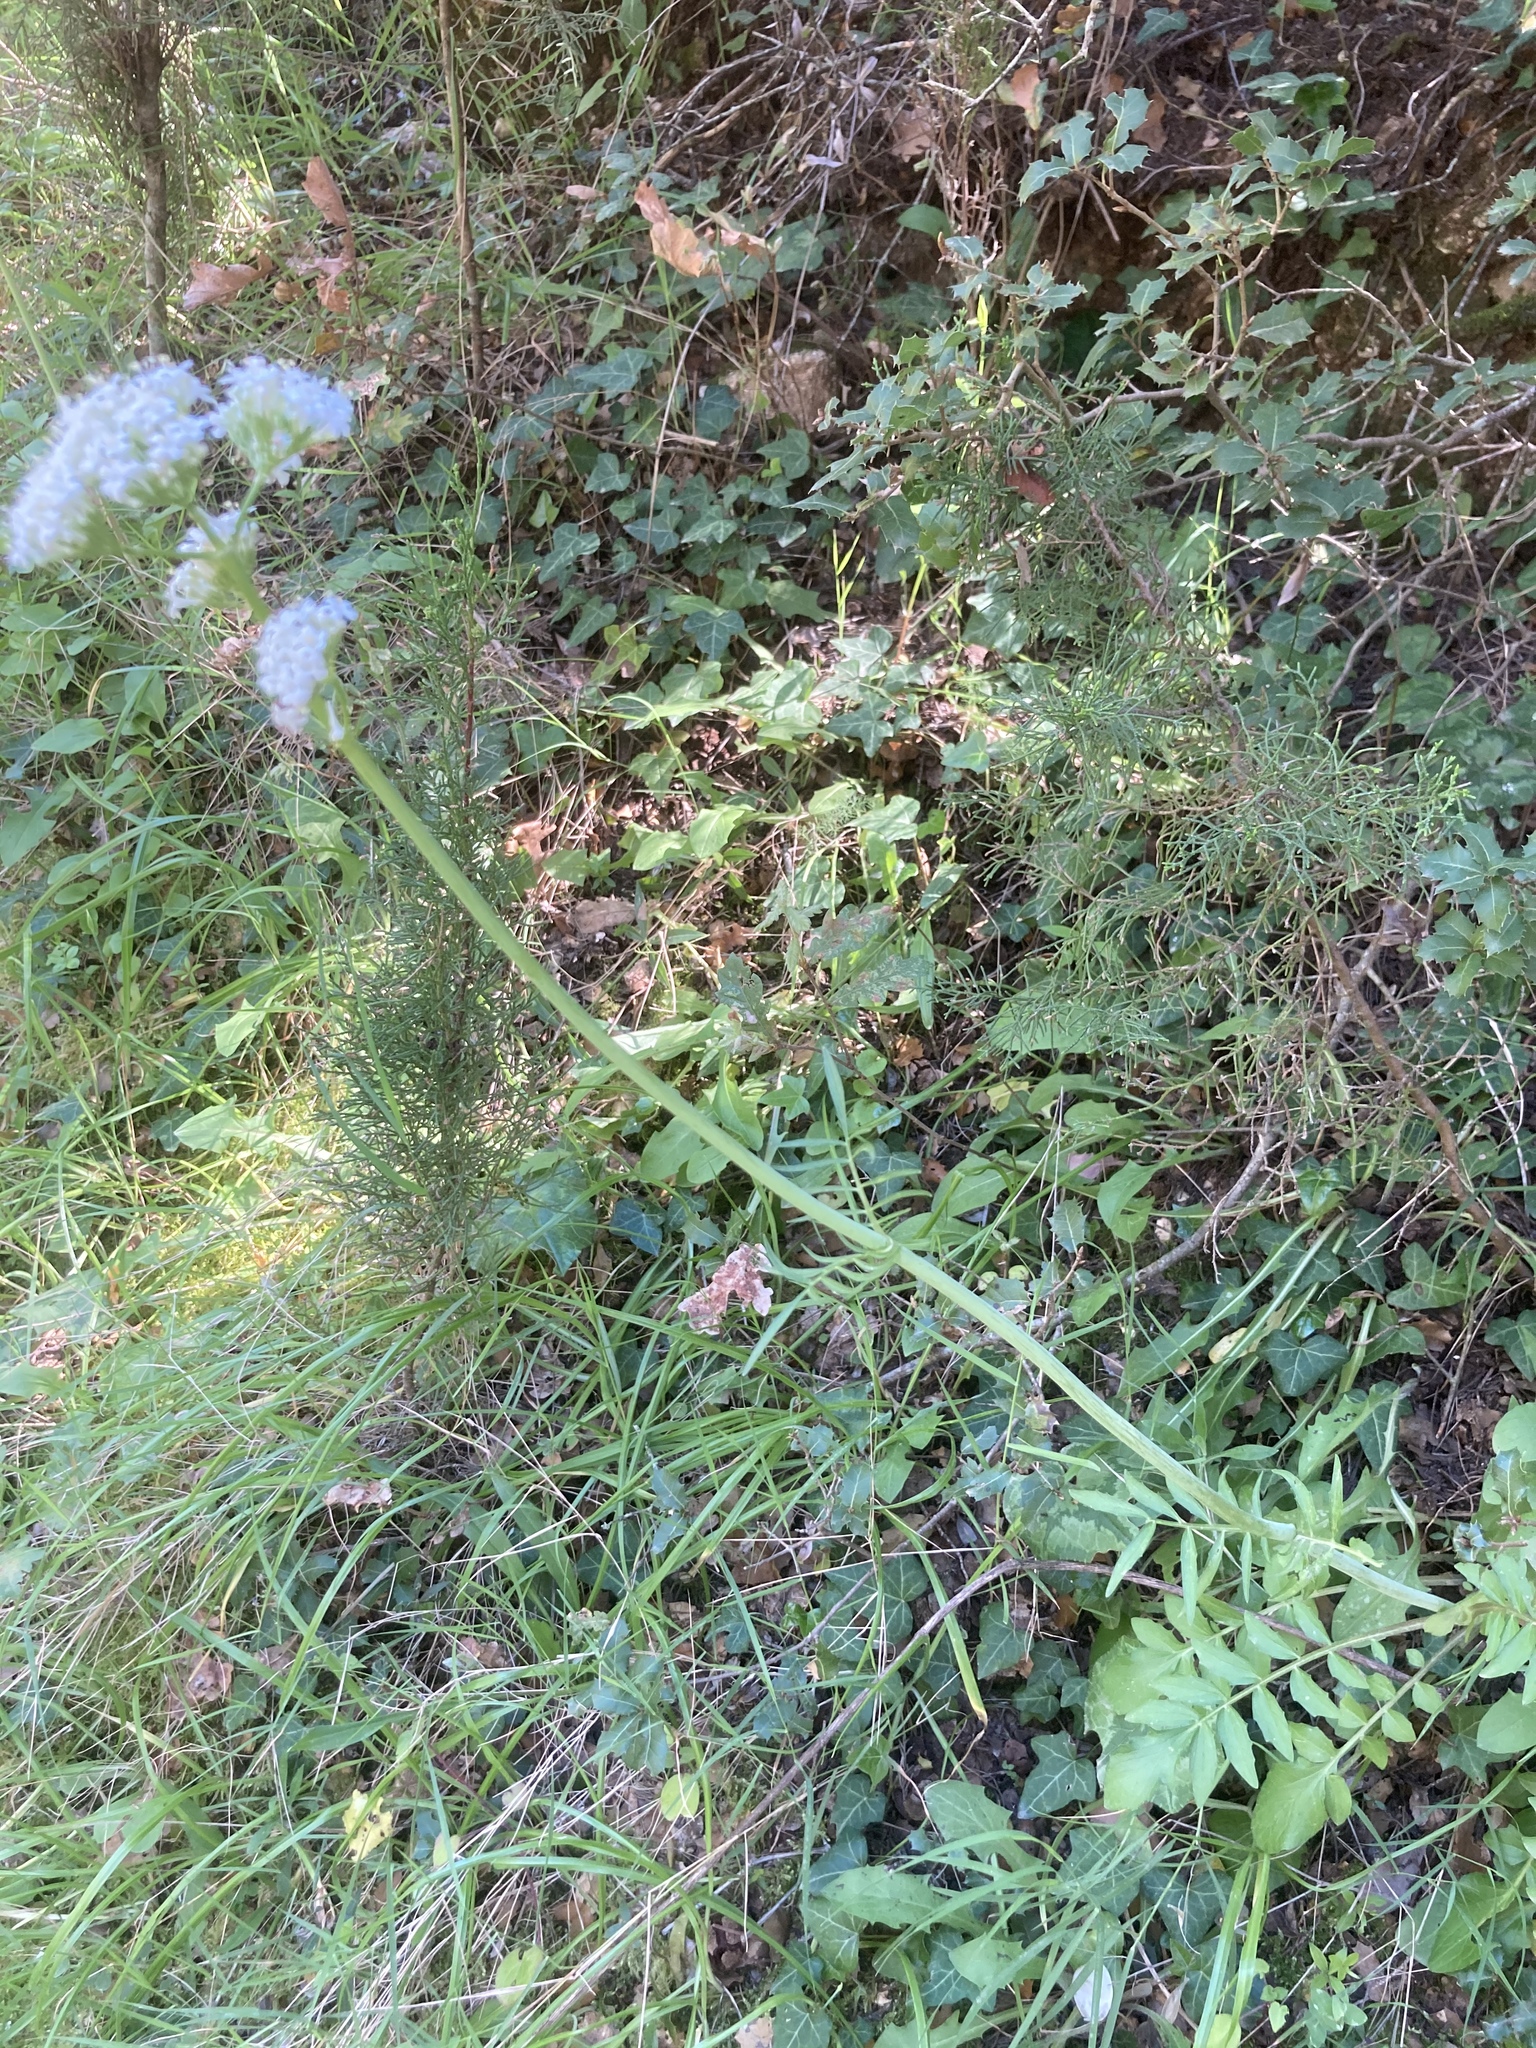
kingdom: Plantae
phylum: Tracheophyta
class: Magnoliopsida
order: Dipsacales
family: Caprifoliaceae
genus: Valeriana
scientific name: Valeriana dioscoridis
